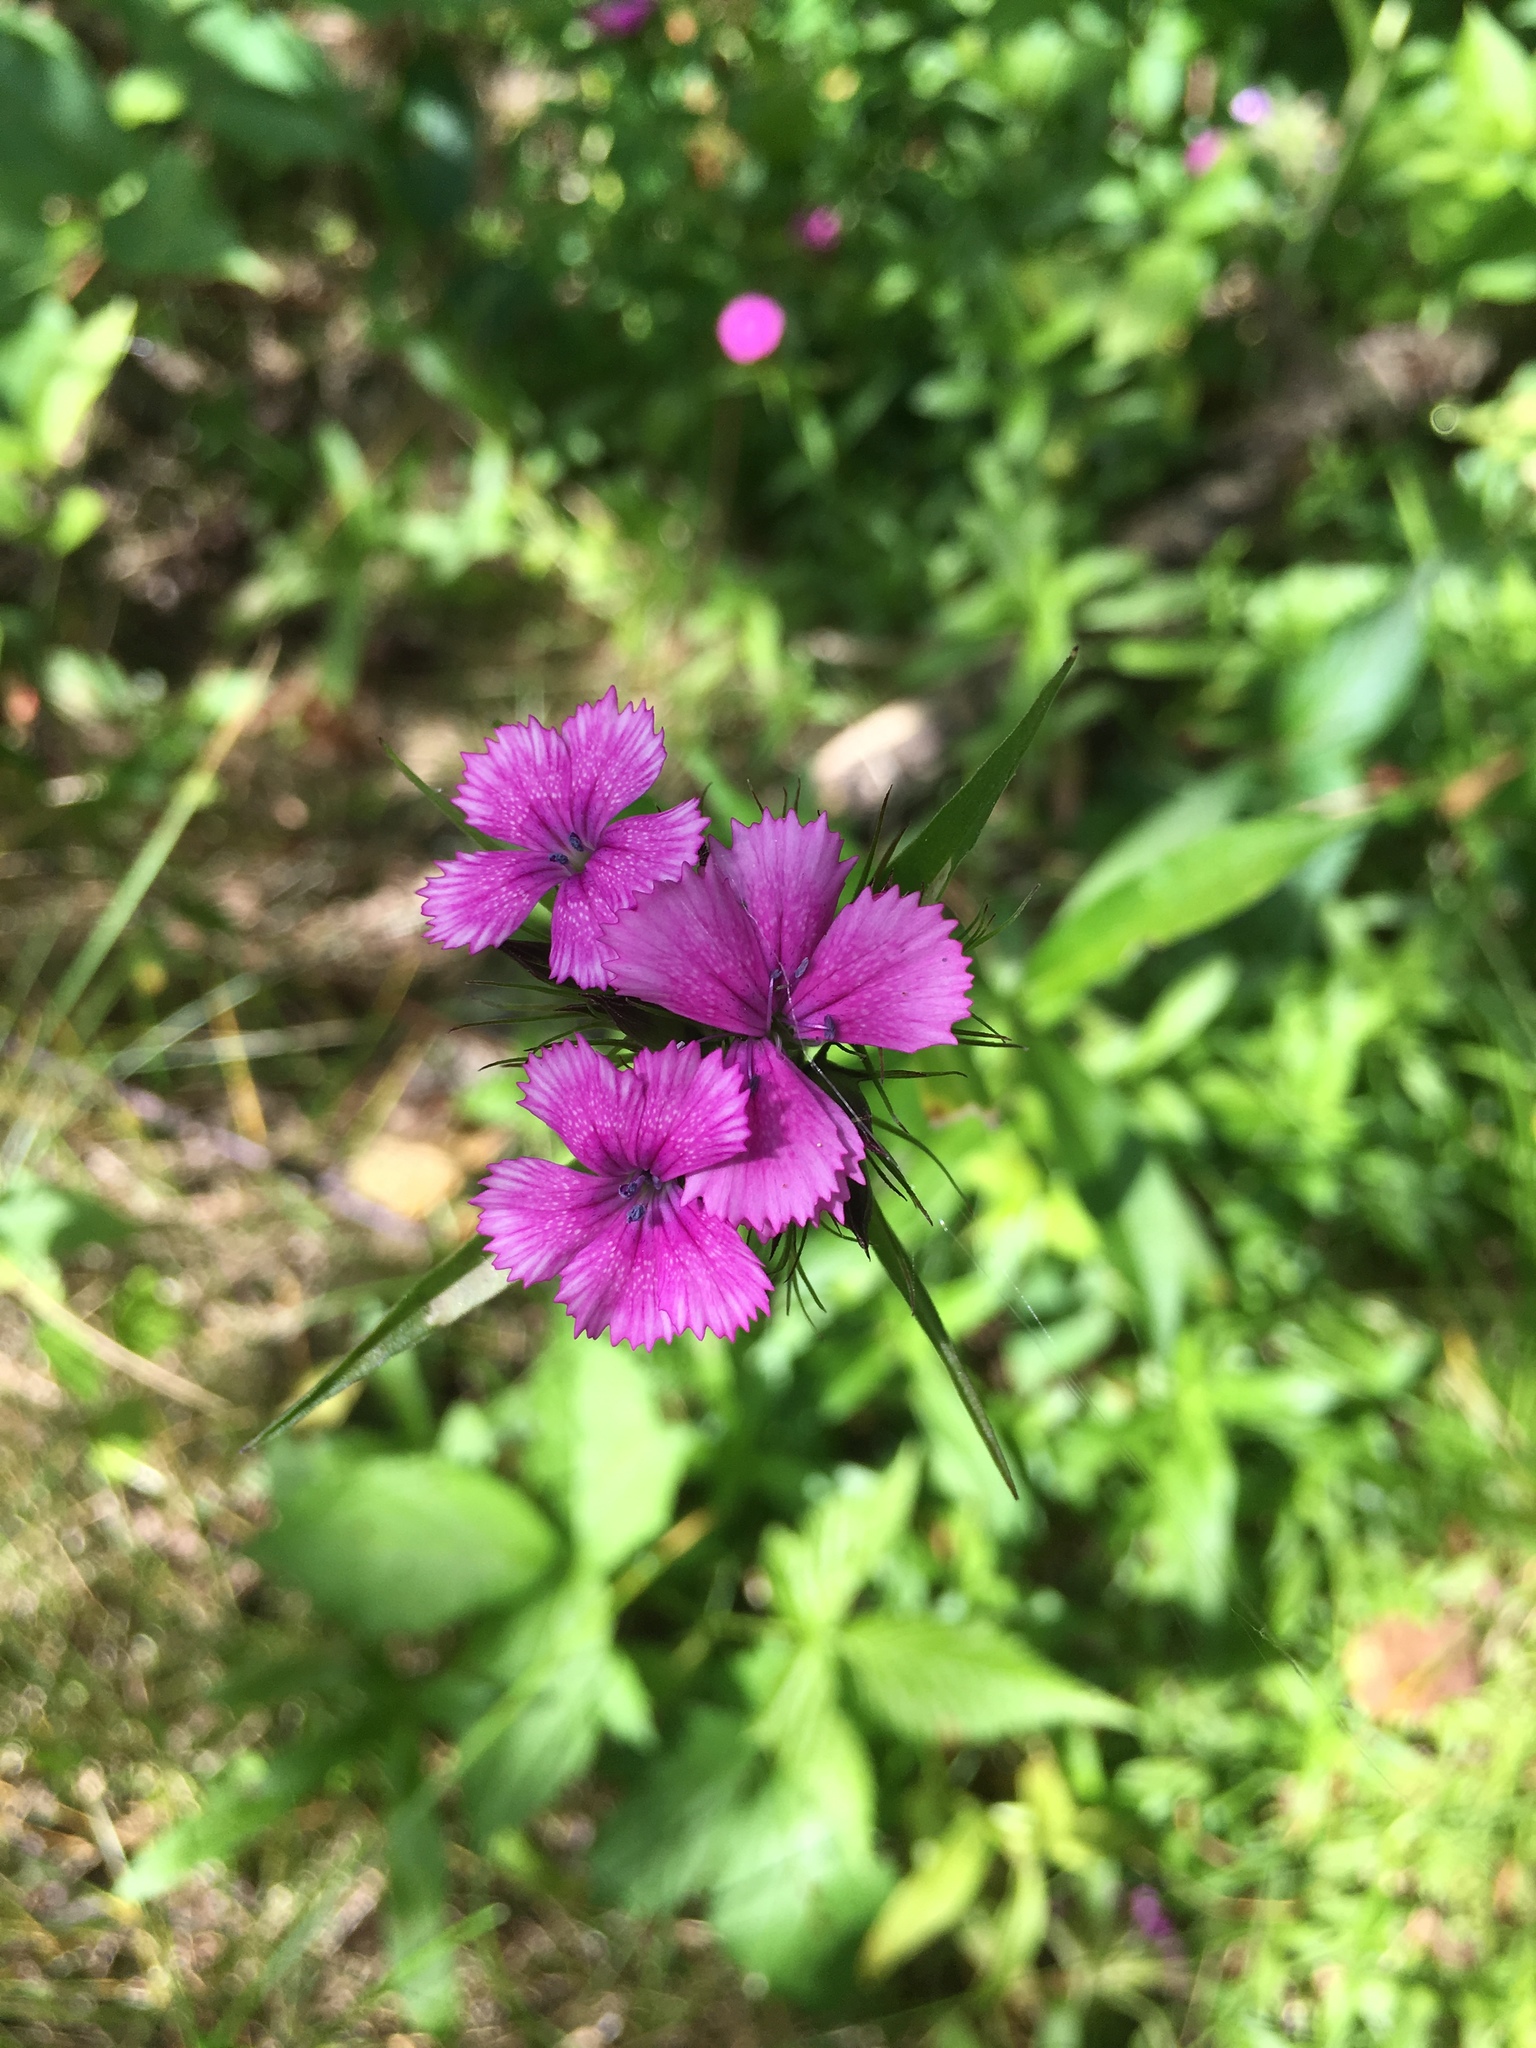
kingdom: Plantae
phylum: Tracheophyta
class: Magnoliopsida
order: Caryophyllales
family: Caryophyllaceae
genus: Dianthus
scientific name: Dianthus barbatus
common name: Sweet-william
